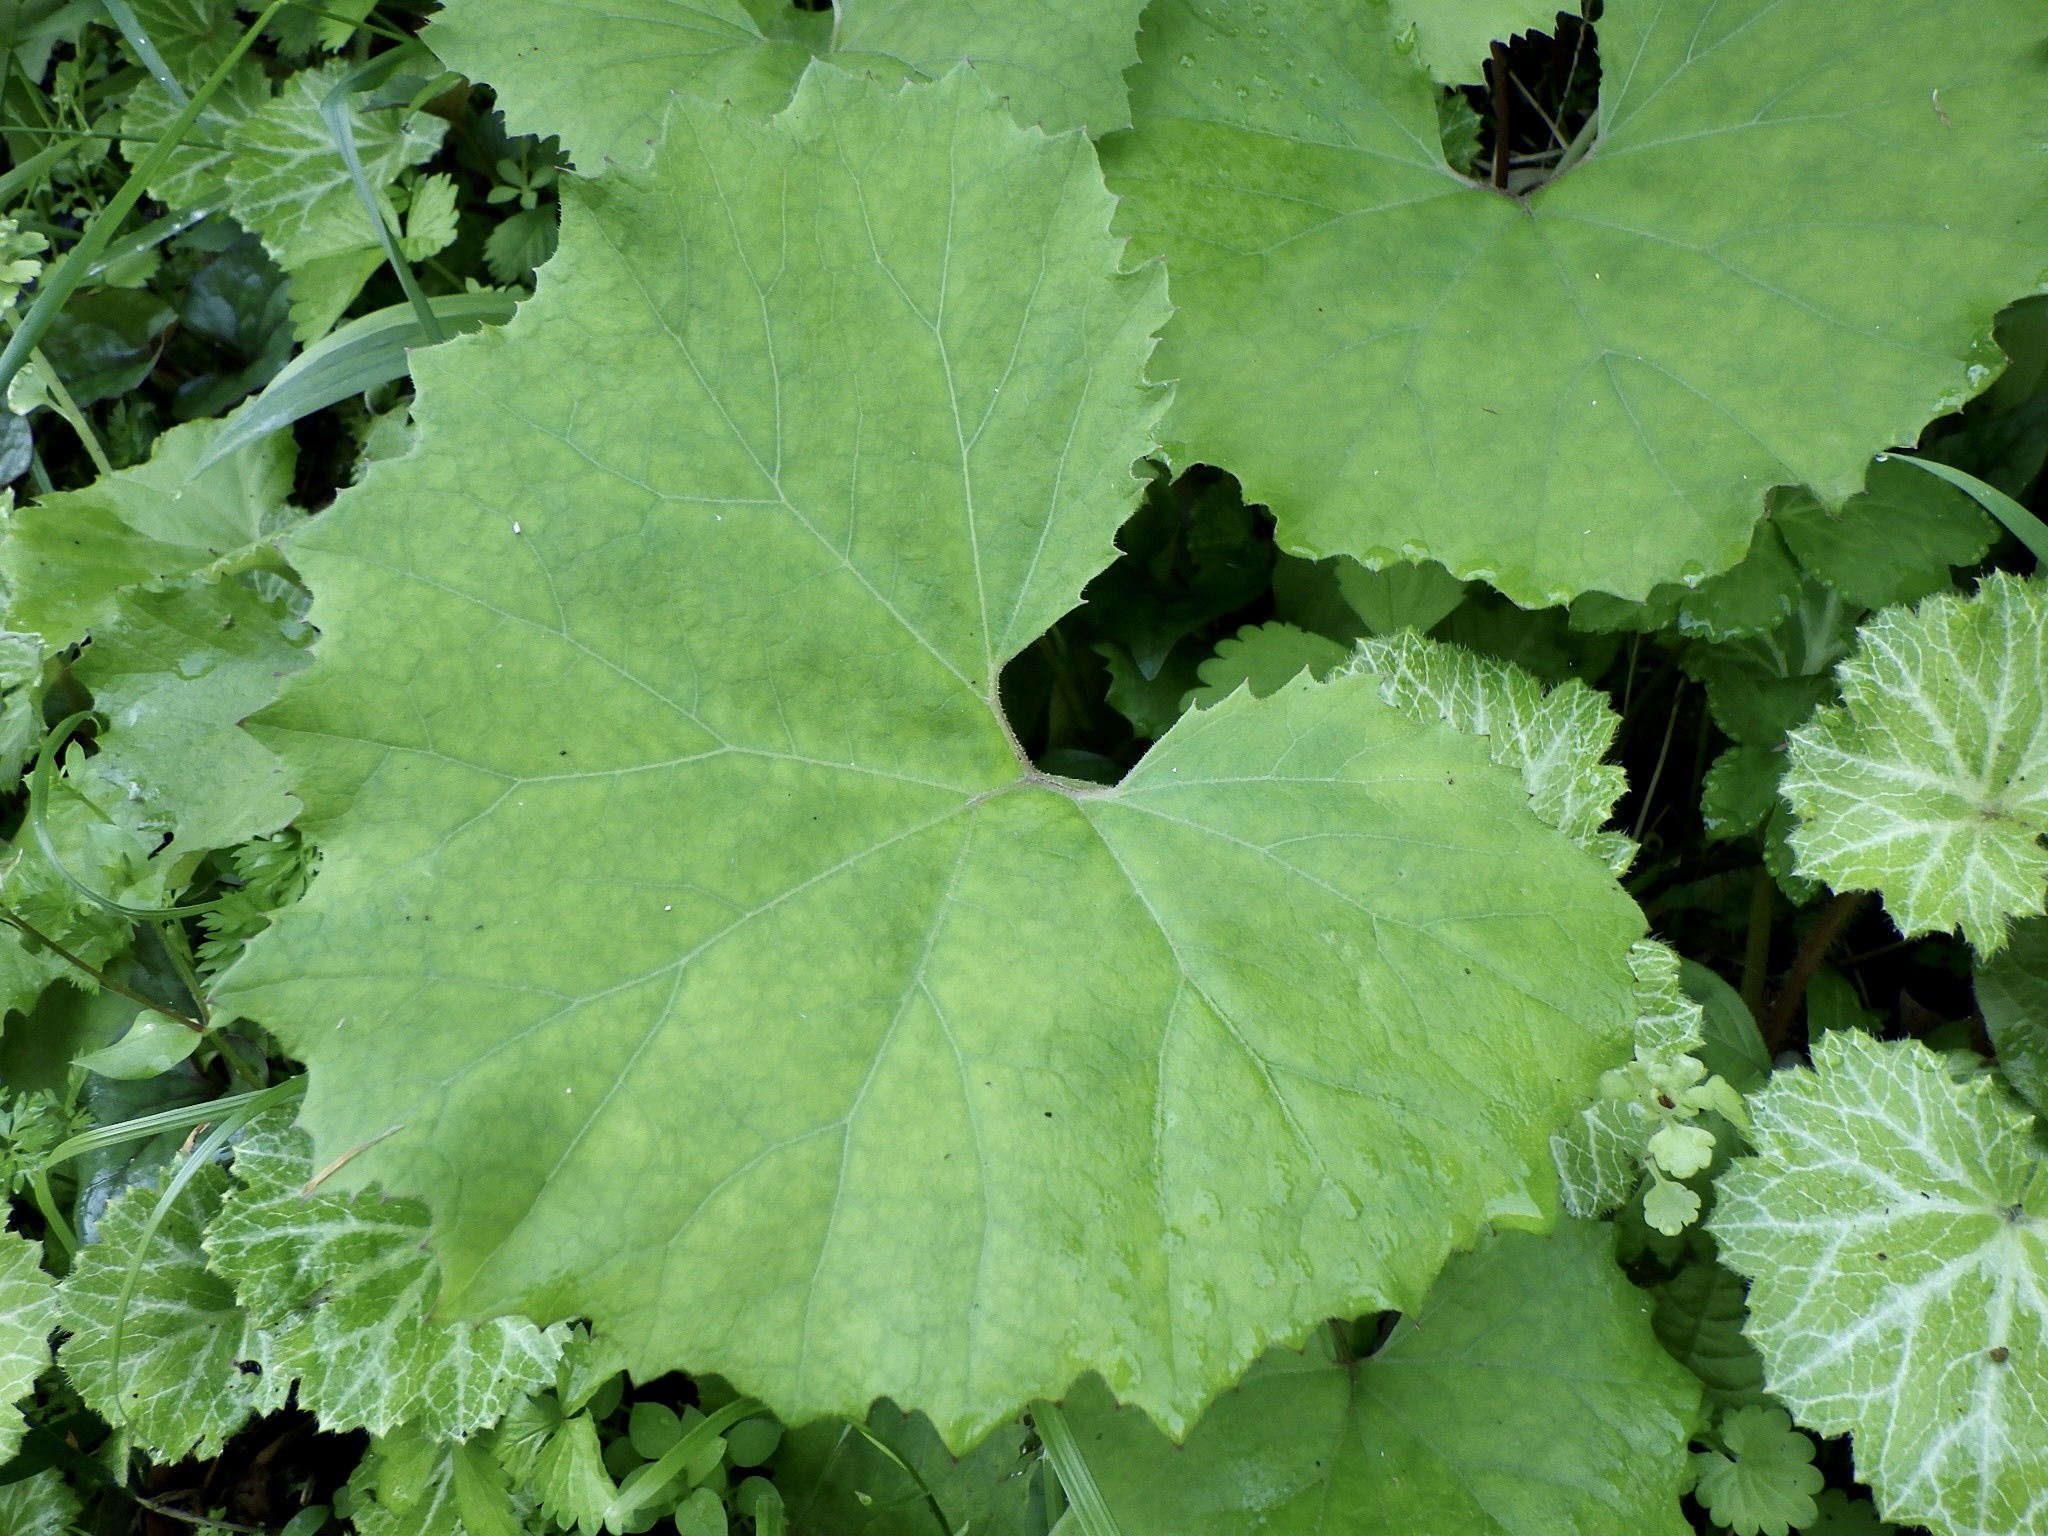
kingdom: Plantae
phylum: Tracheophyta
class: Magnoliopsida
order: Asterales
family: Asteraceae
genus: Petasites
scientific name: Petasites japonicus
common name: Giant butterbur
